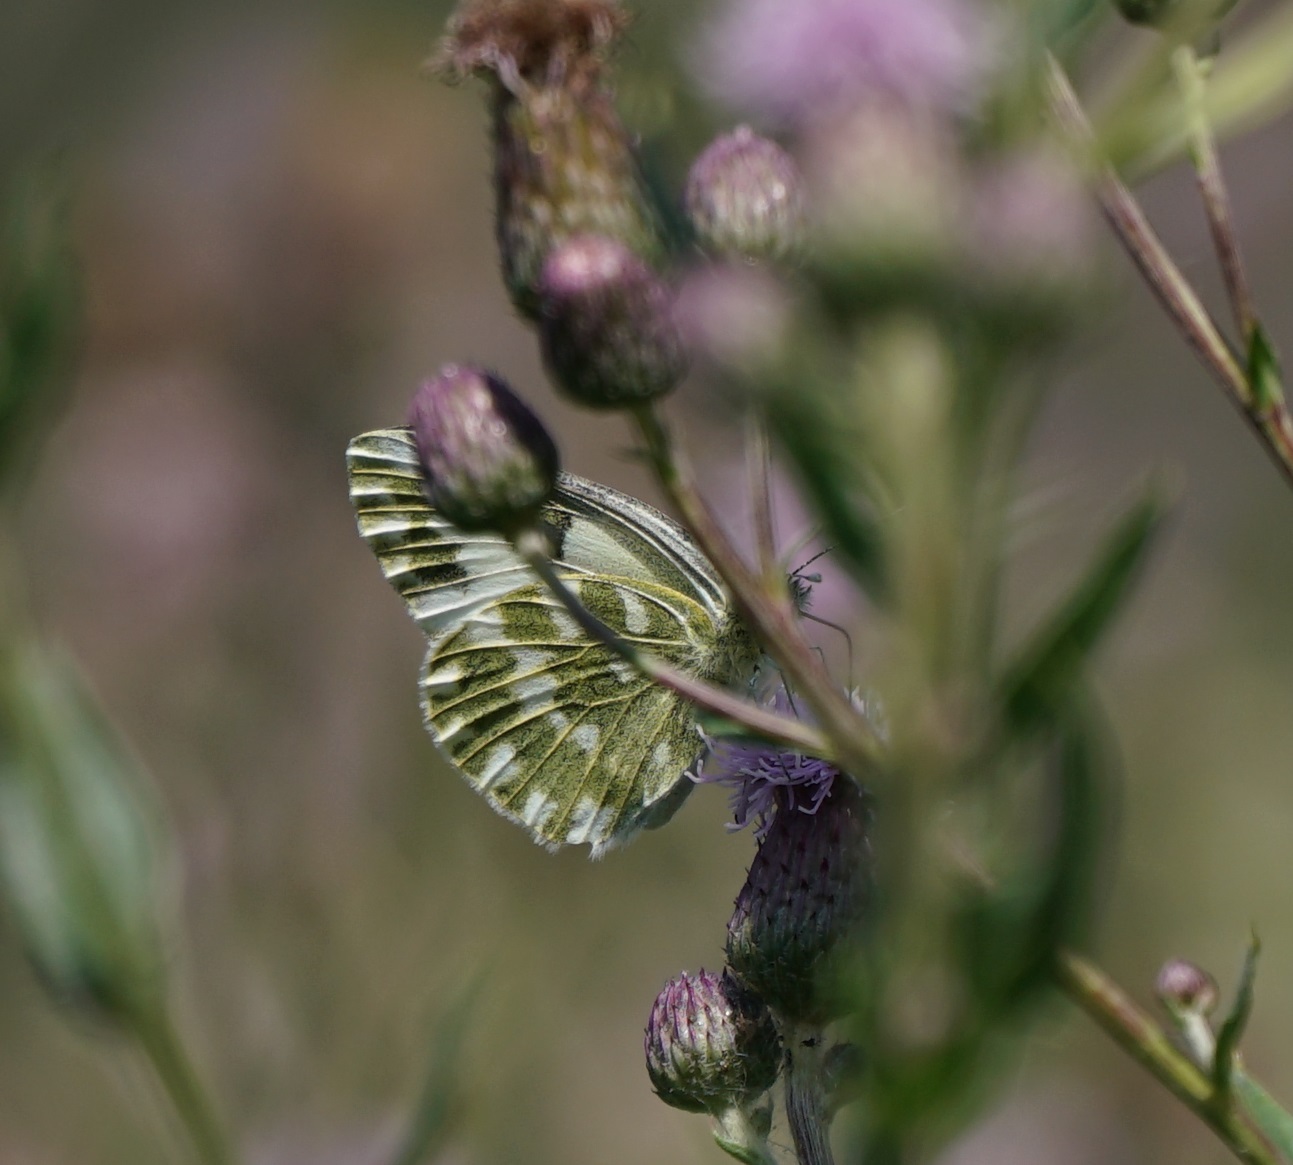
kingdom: Animalia
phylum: Arthropoda
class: Insecta
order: Lepidoptera
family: Pieridae
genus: Pontia
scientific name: Pontia edusa
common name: Eastern bath white
